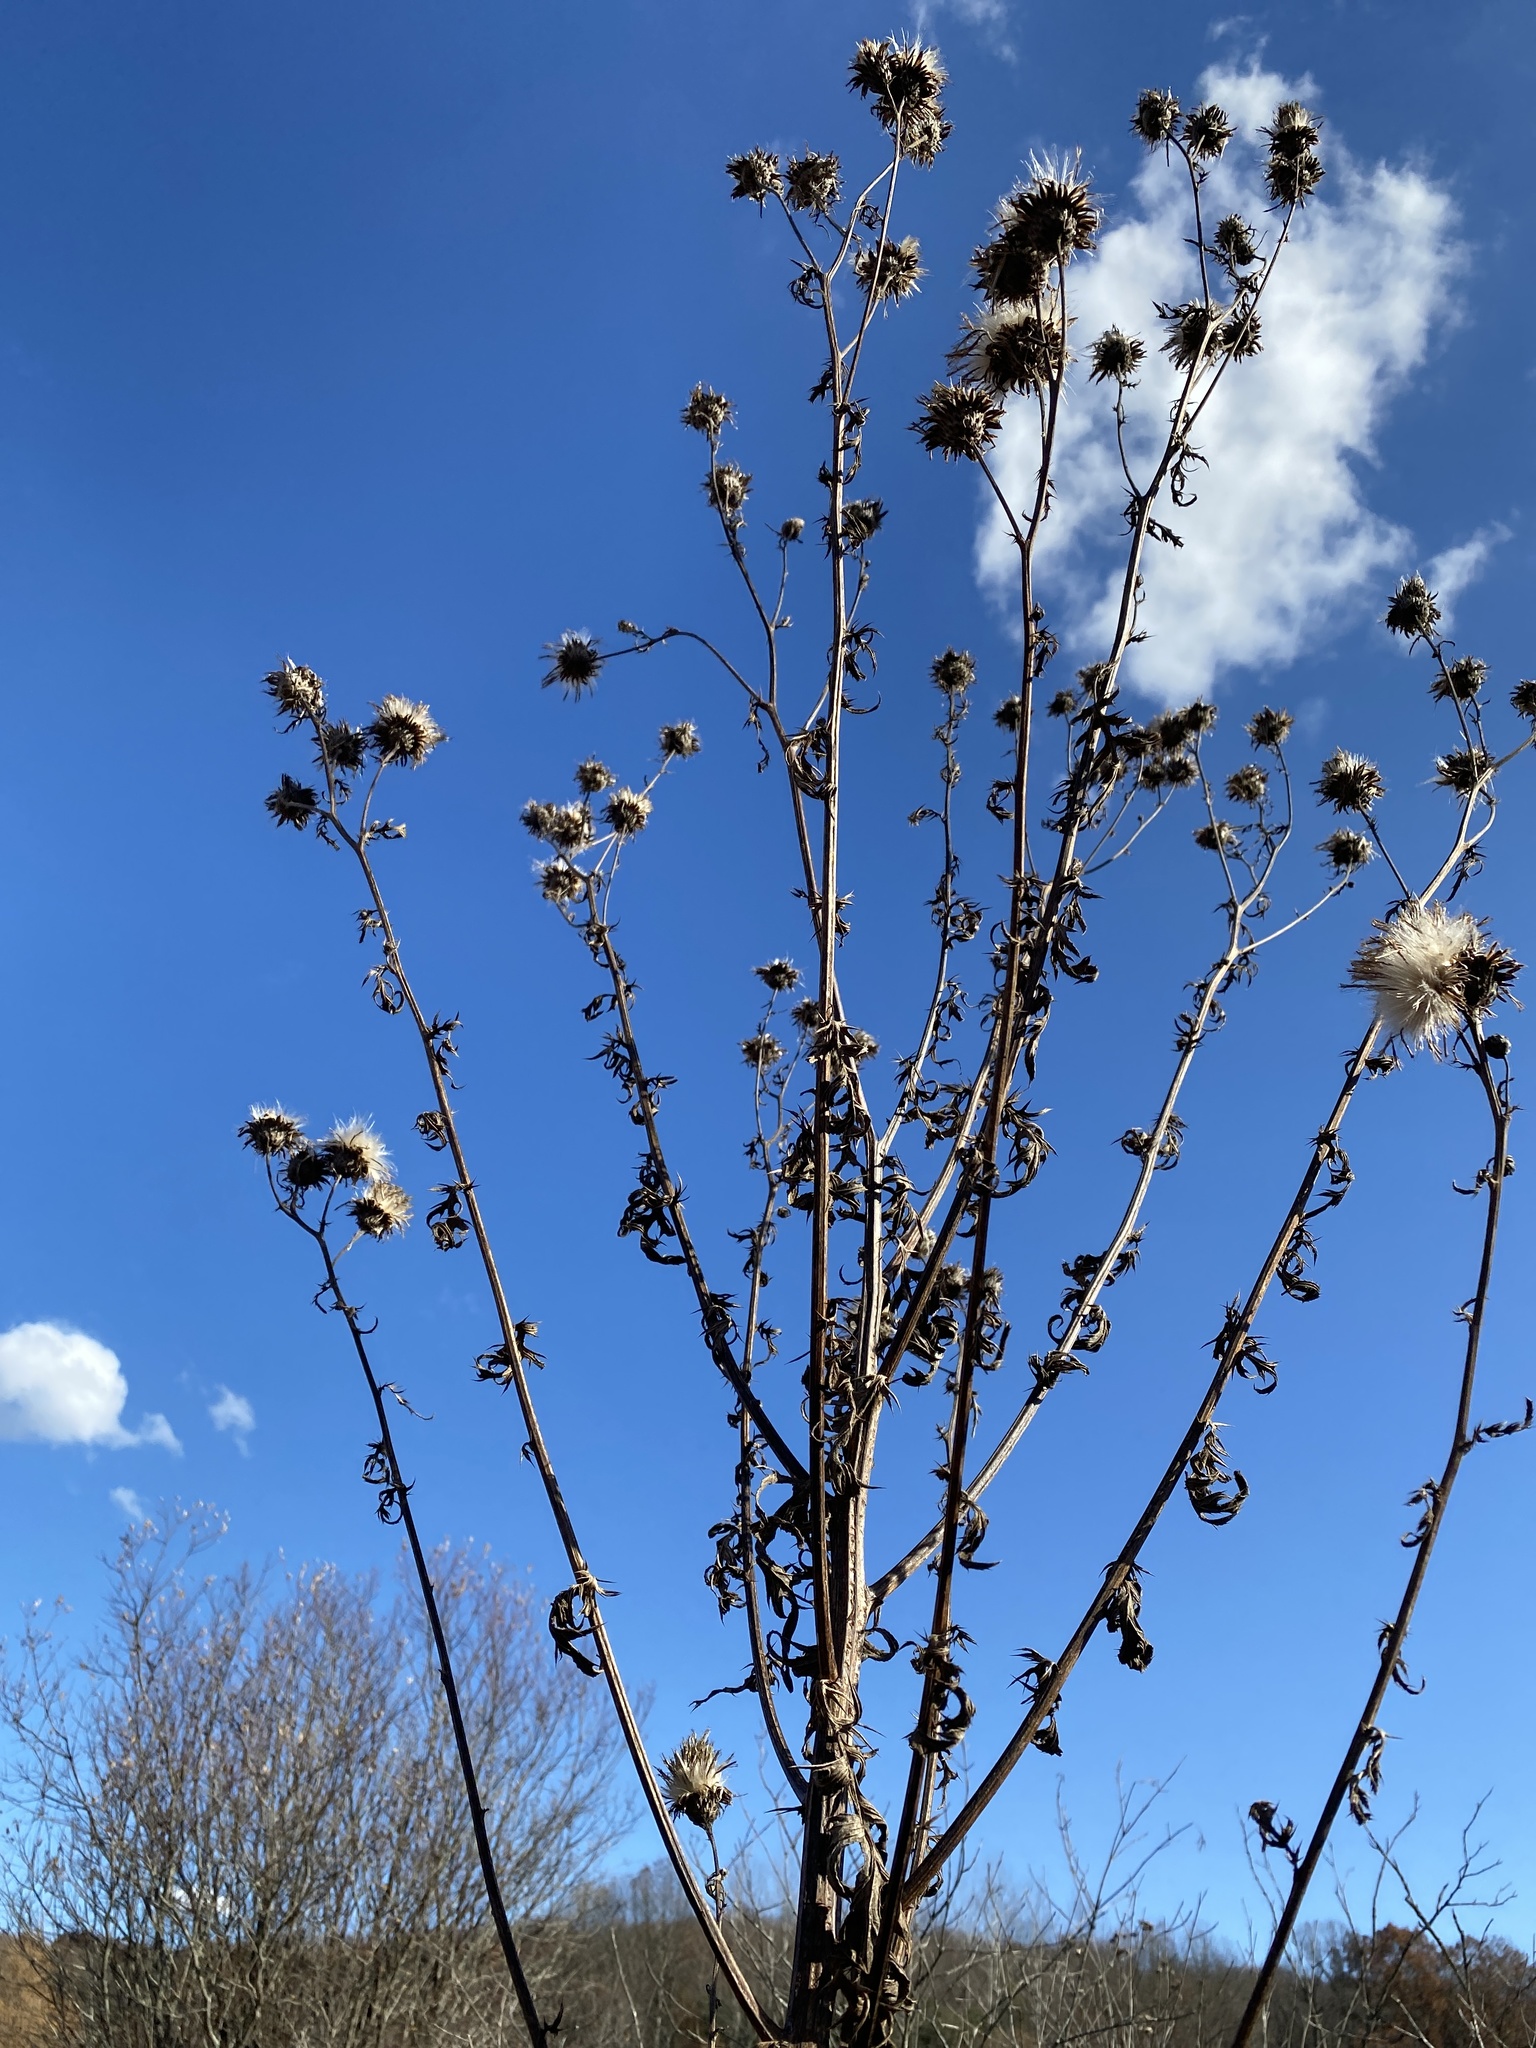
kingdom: Plantae
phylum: Tracheophyta
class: Magnoliopsida
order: Asterales
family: Asteraceae
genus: Cirsium
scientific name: Cirsium muticum
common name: Dunce-nettle
